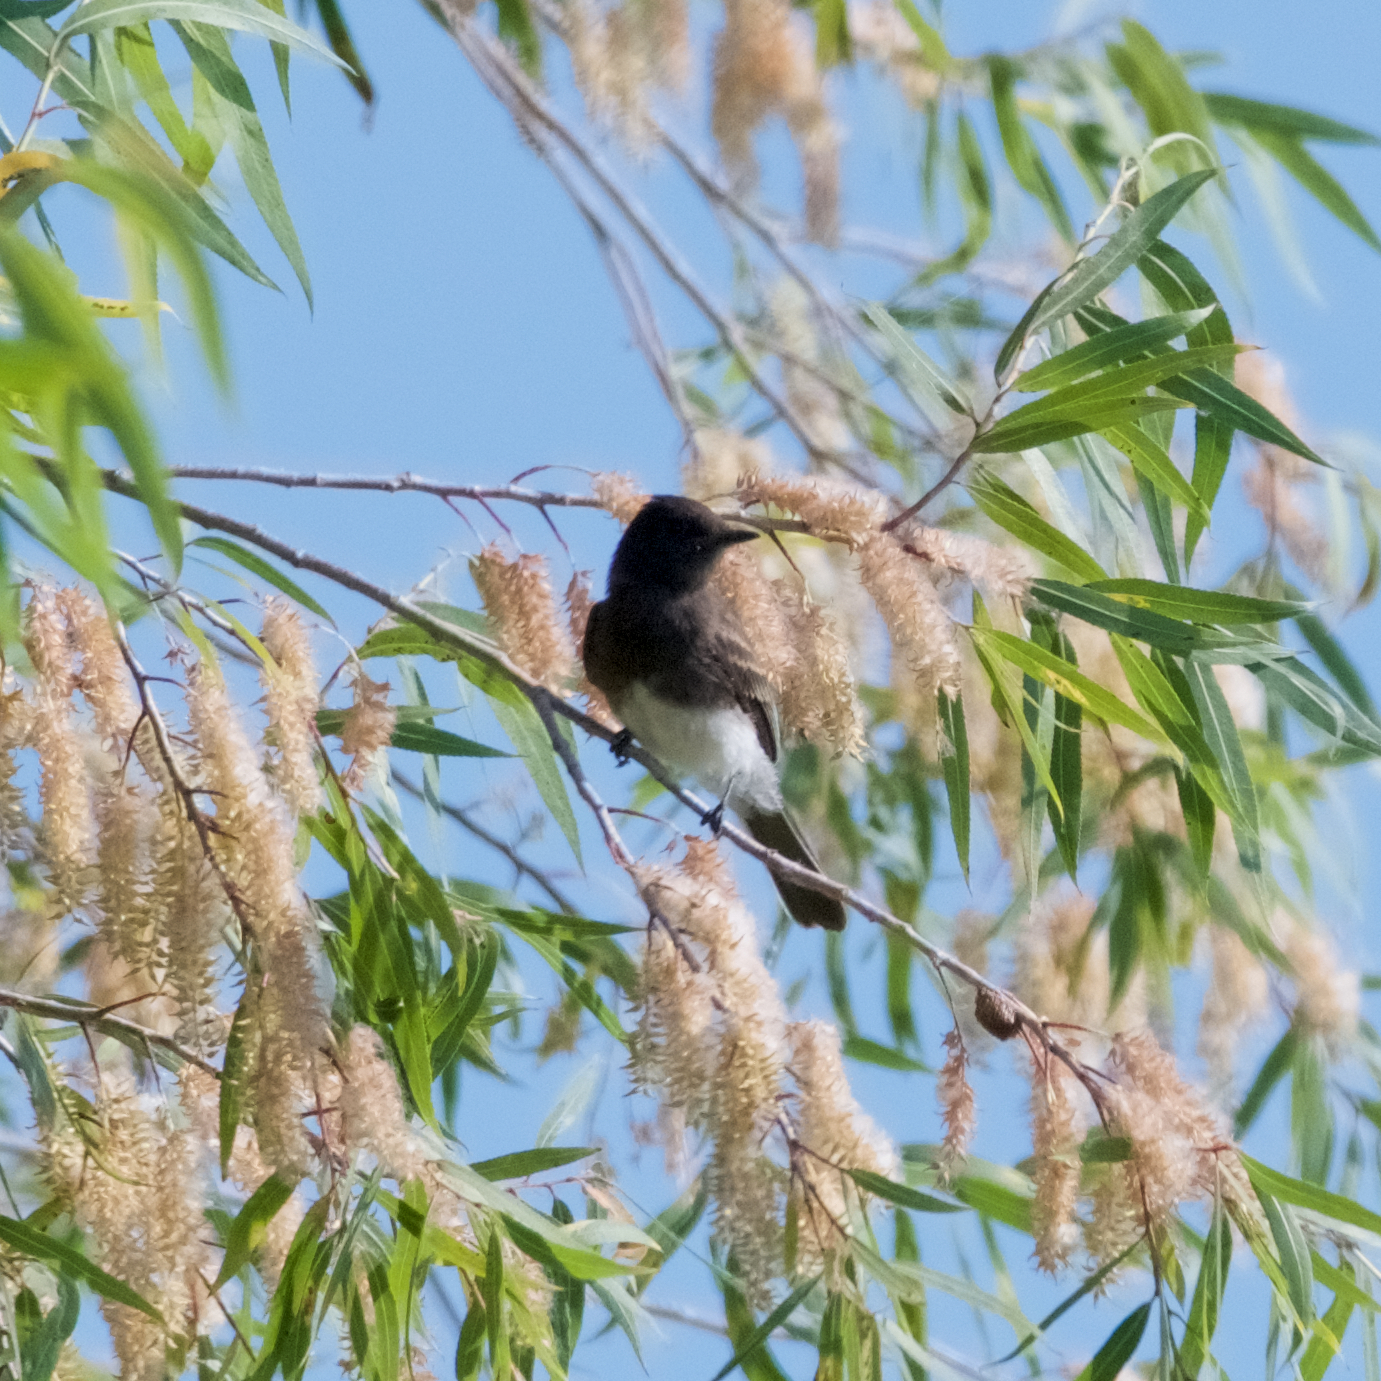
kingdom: Animalia
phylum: Chordata
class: Aves
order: Passeriformes
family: Tyrannidae
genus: Sayornis
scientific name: Sayornis nigricans
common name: Black phoebe
